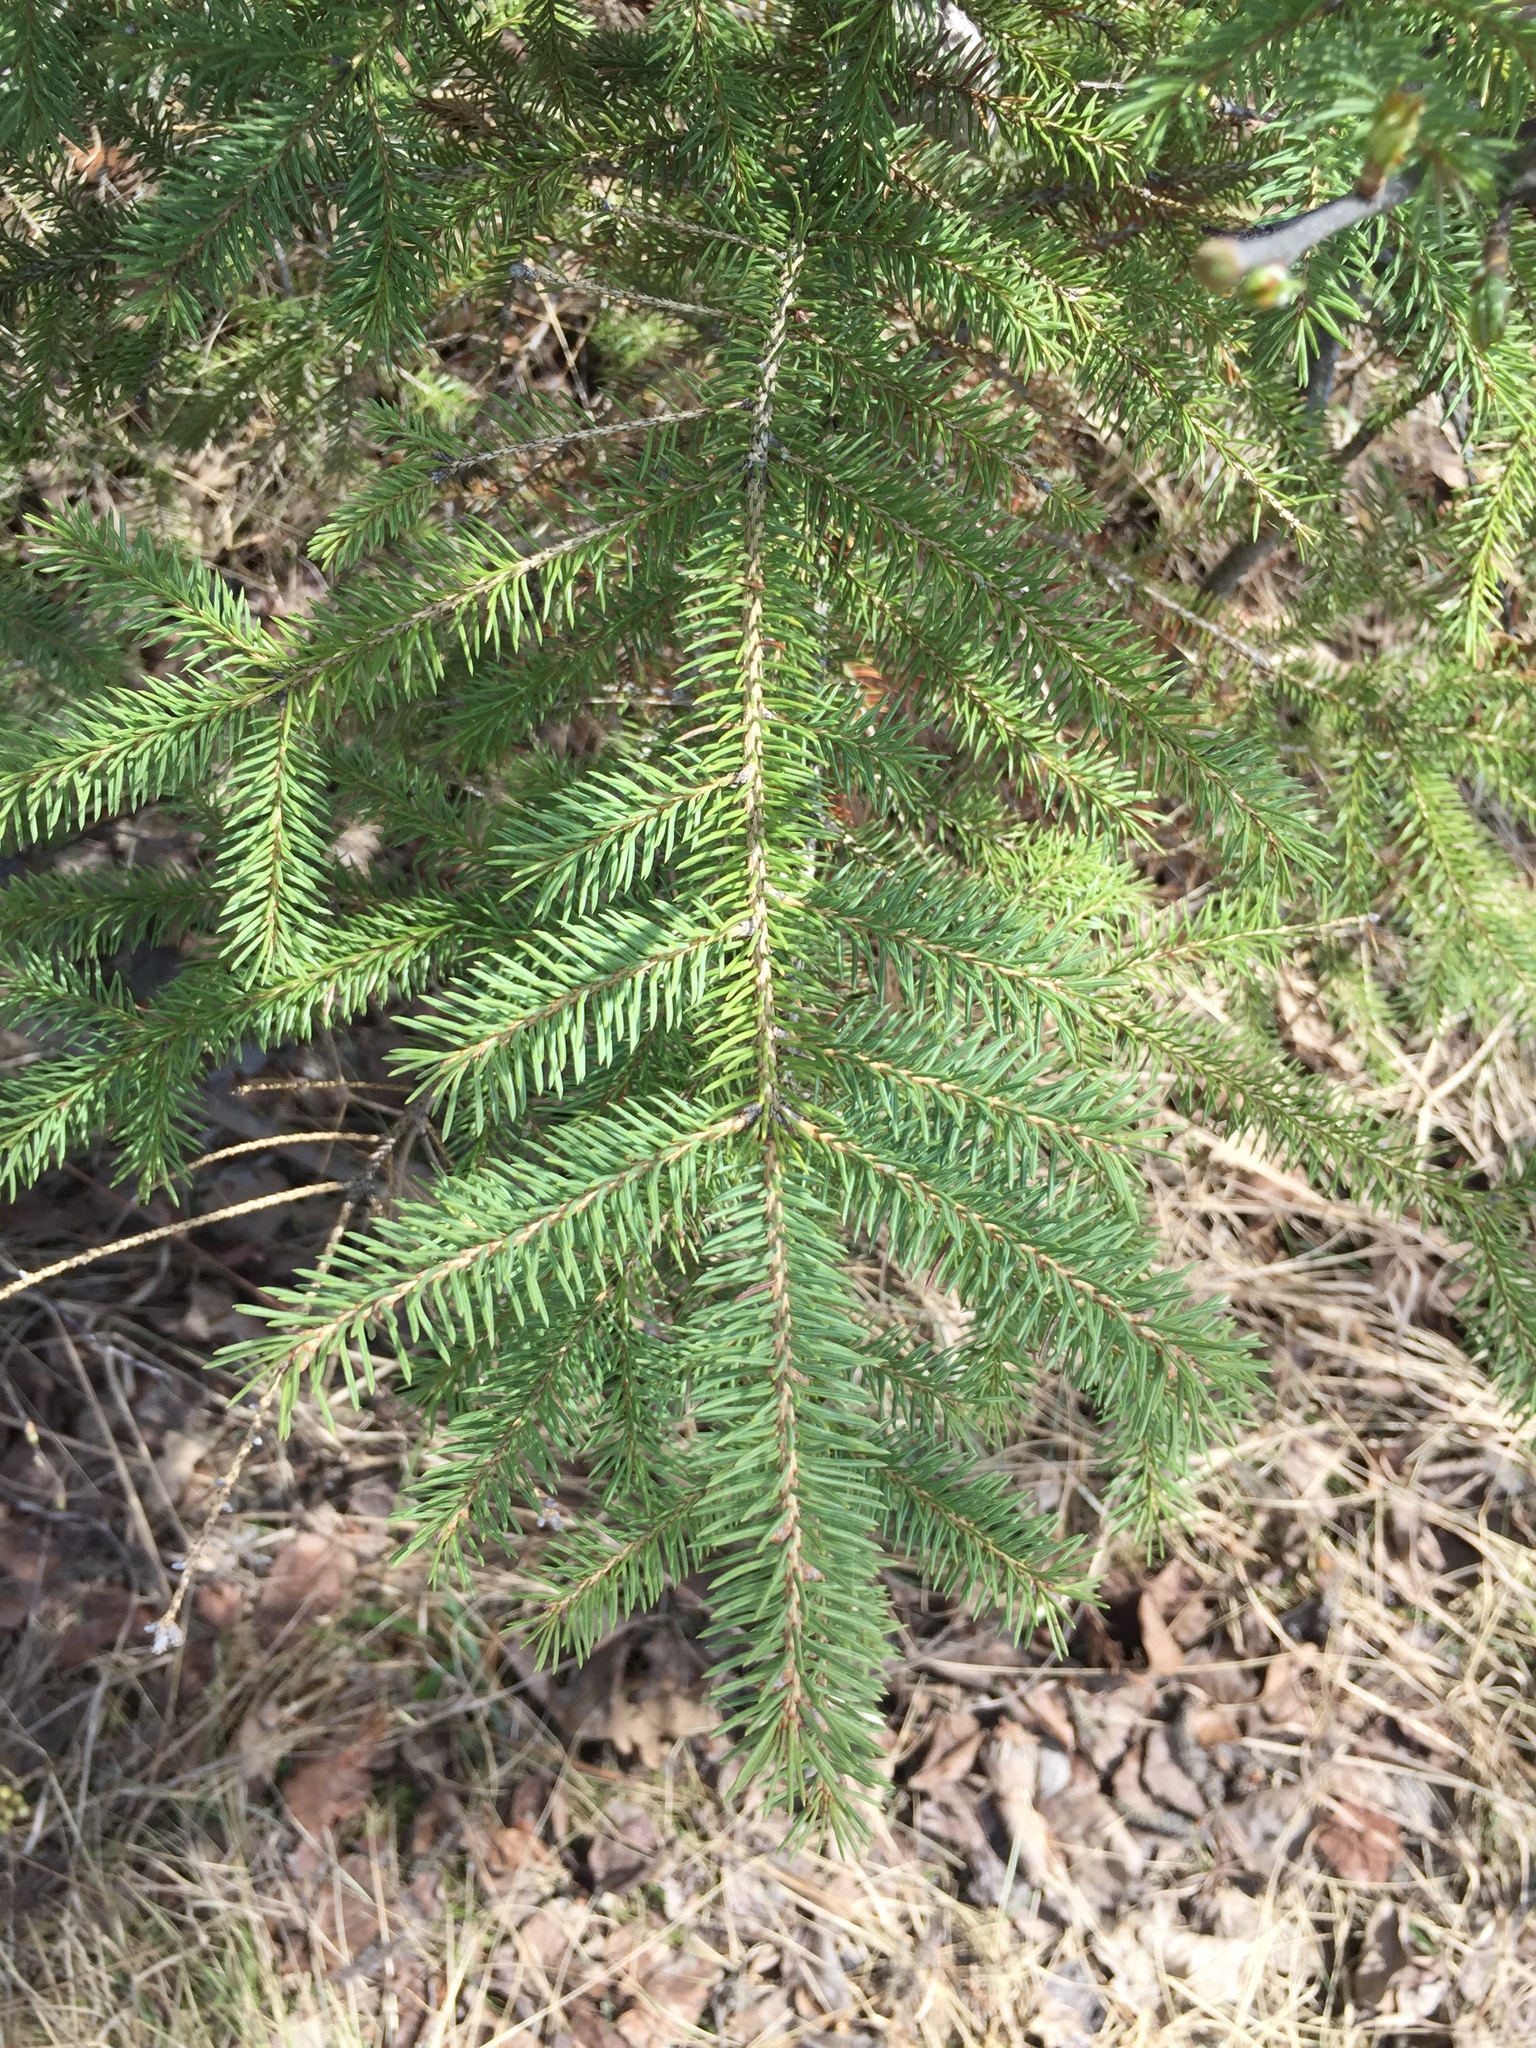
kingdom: Plantae
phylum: Tracheophyta
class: Pinopsida
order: Pinales
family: Pinaceae
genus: Picea
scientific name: Picea glauca
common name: White spruce
